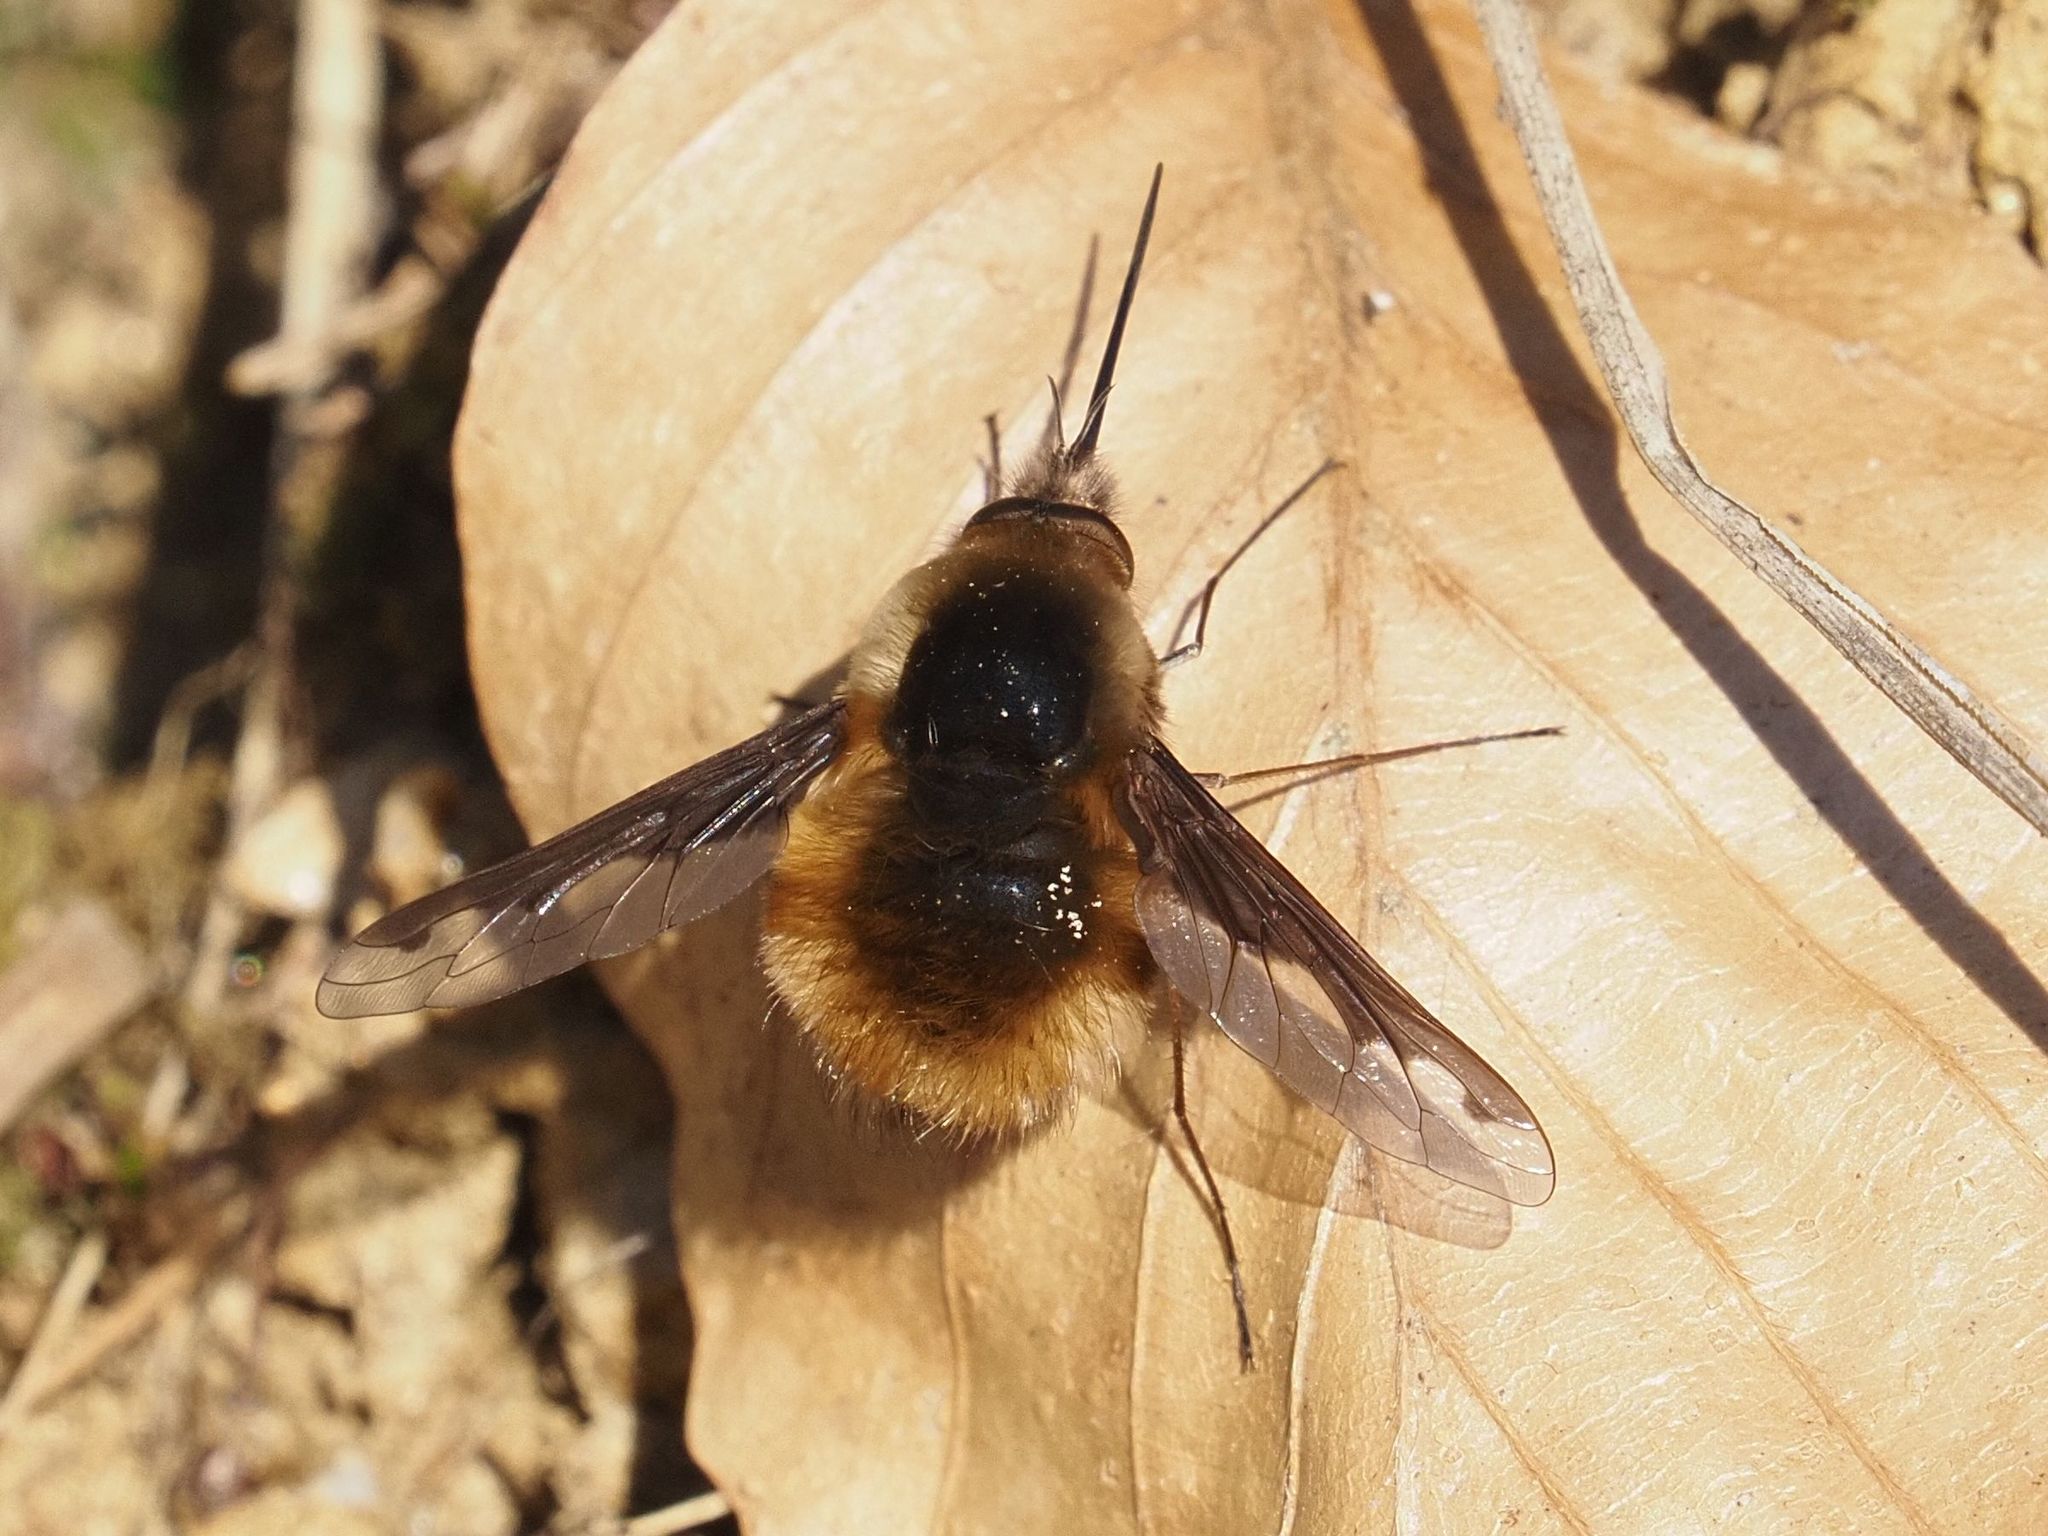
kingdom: Animalia
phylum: Arthropoda
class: Insecta
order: Diptera
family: Bombyliidae
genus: Bombylius
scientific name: Bombylius major
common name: Bee fly
